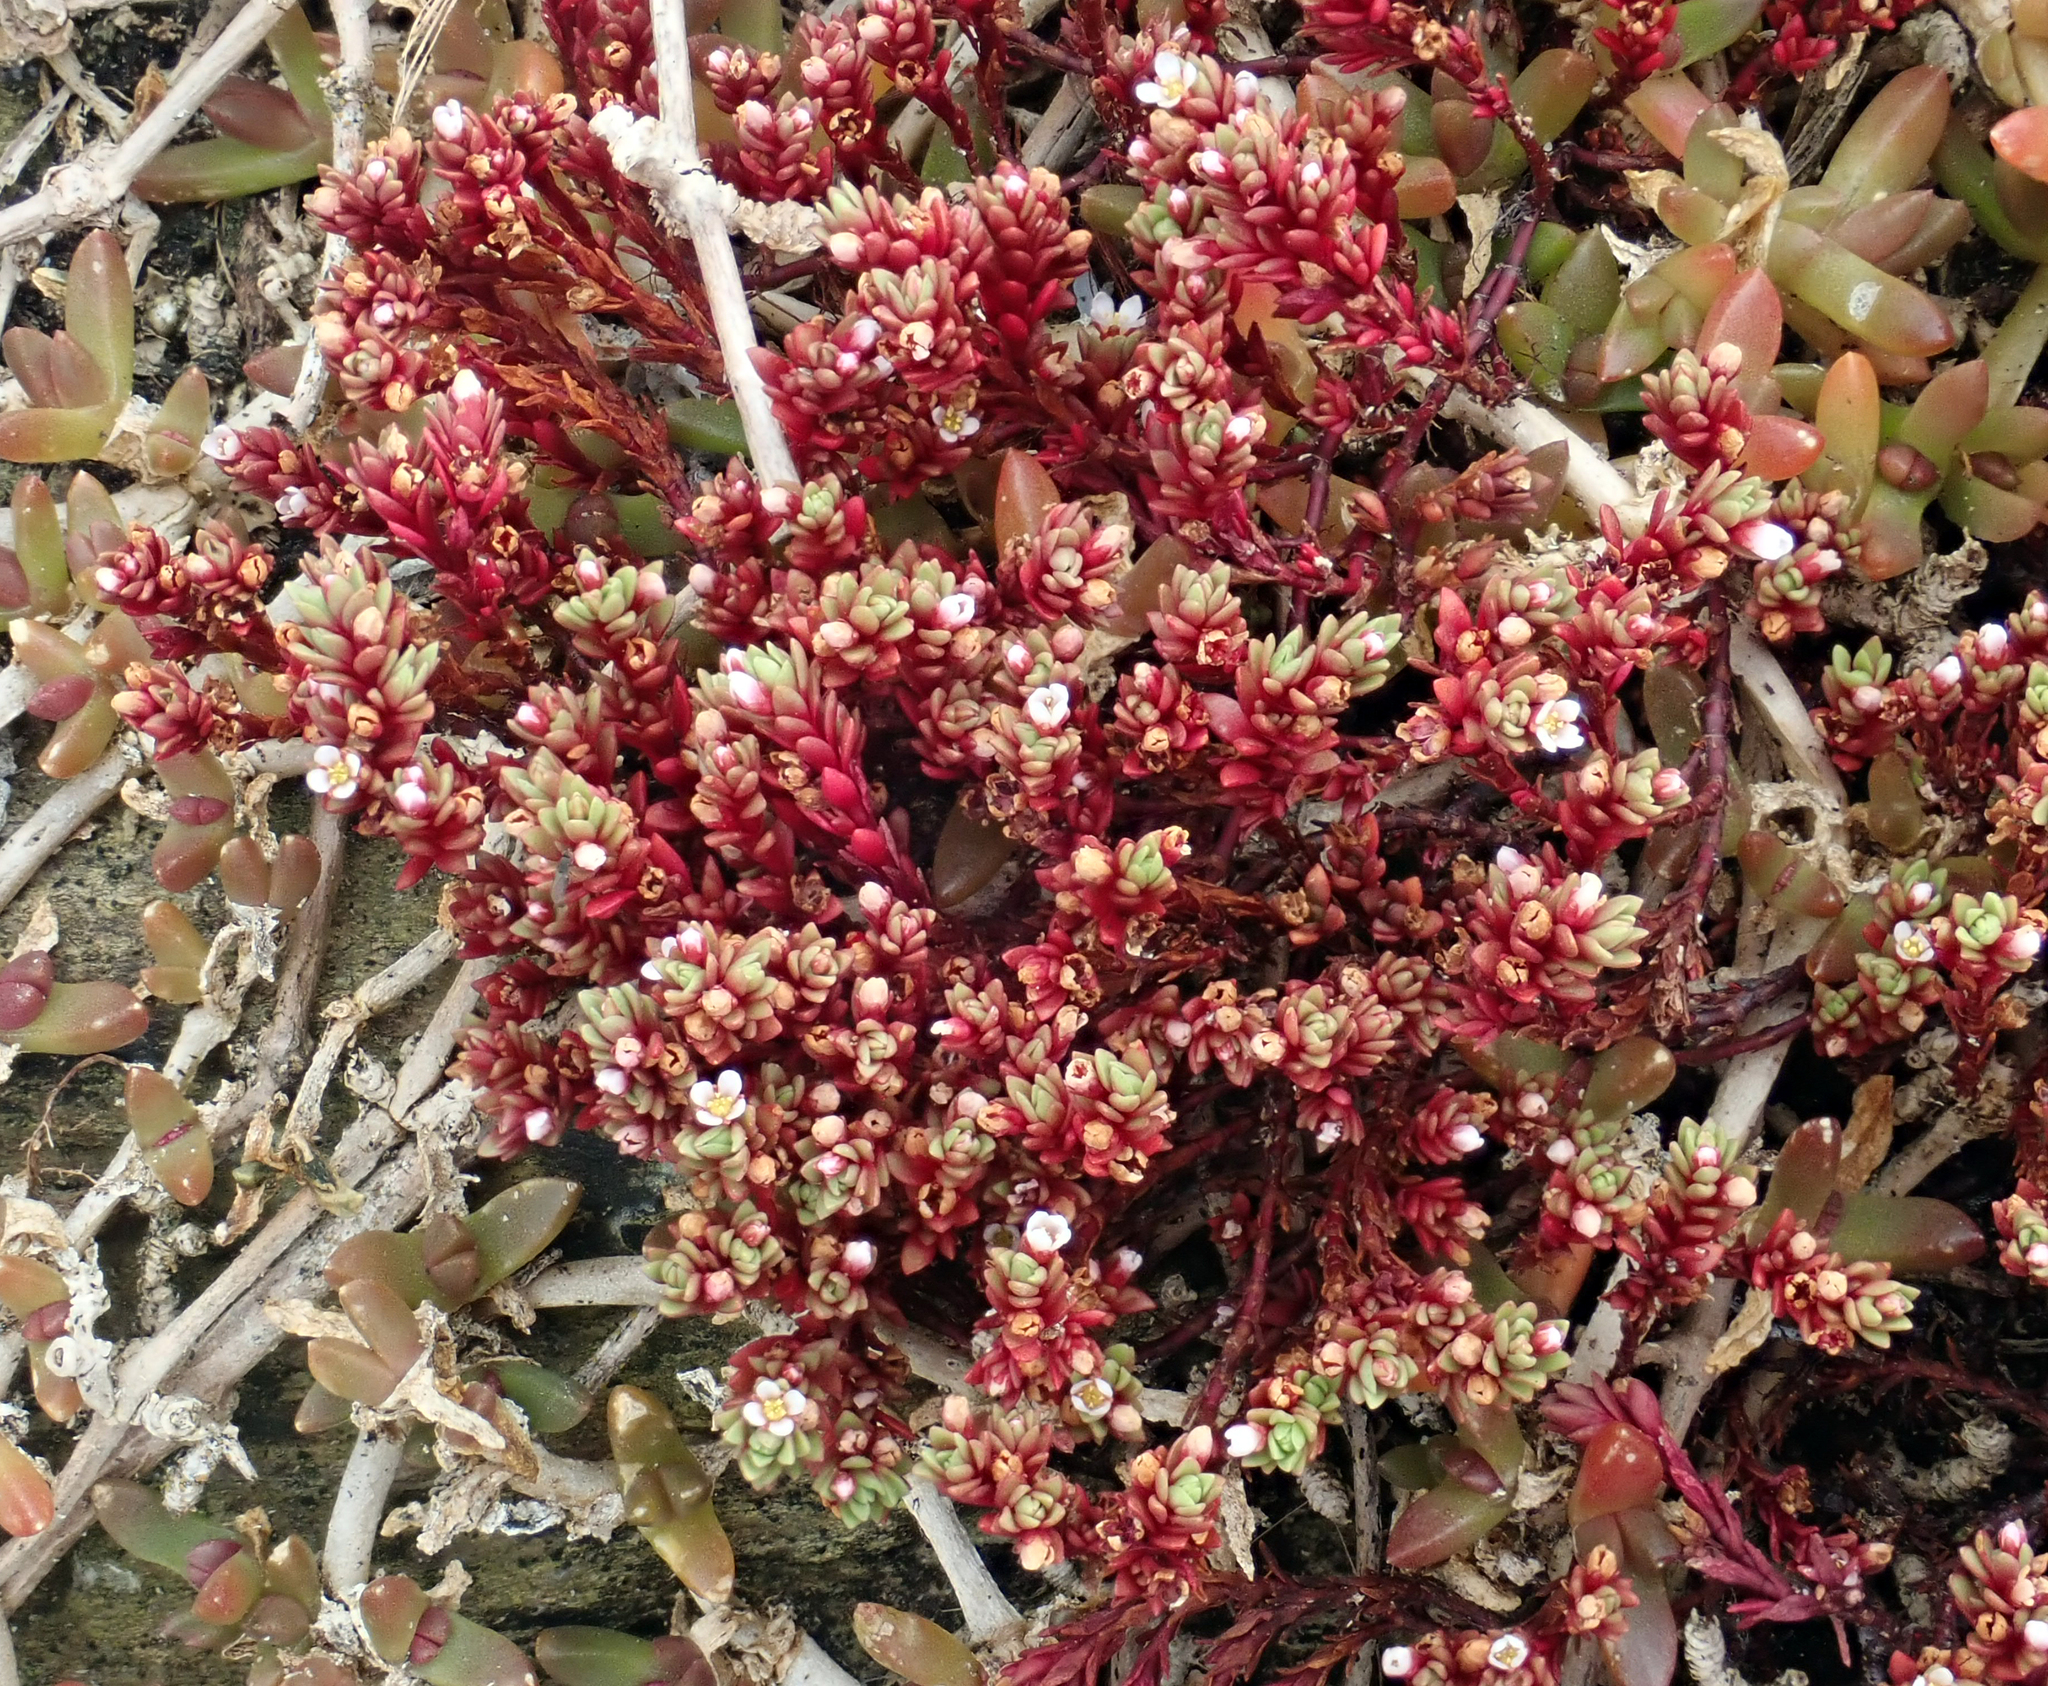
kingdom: Plantae
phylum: Tracheophyta
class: Magnoliopsida
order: Saxifragales
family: Crassulaceae
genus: Crassula
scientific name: Crassula moschata
